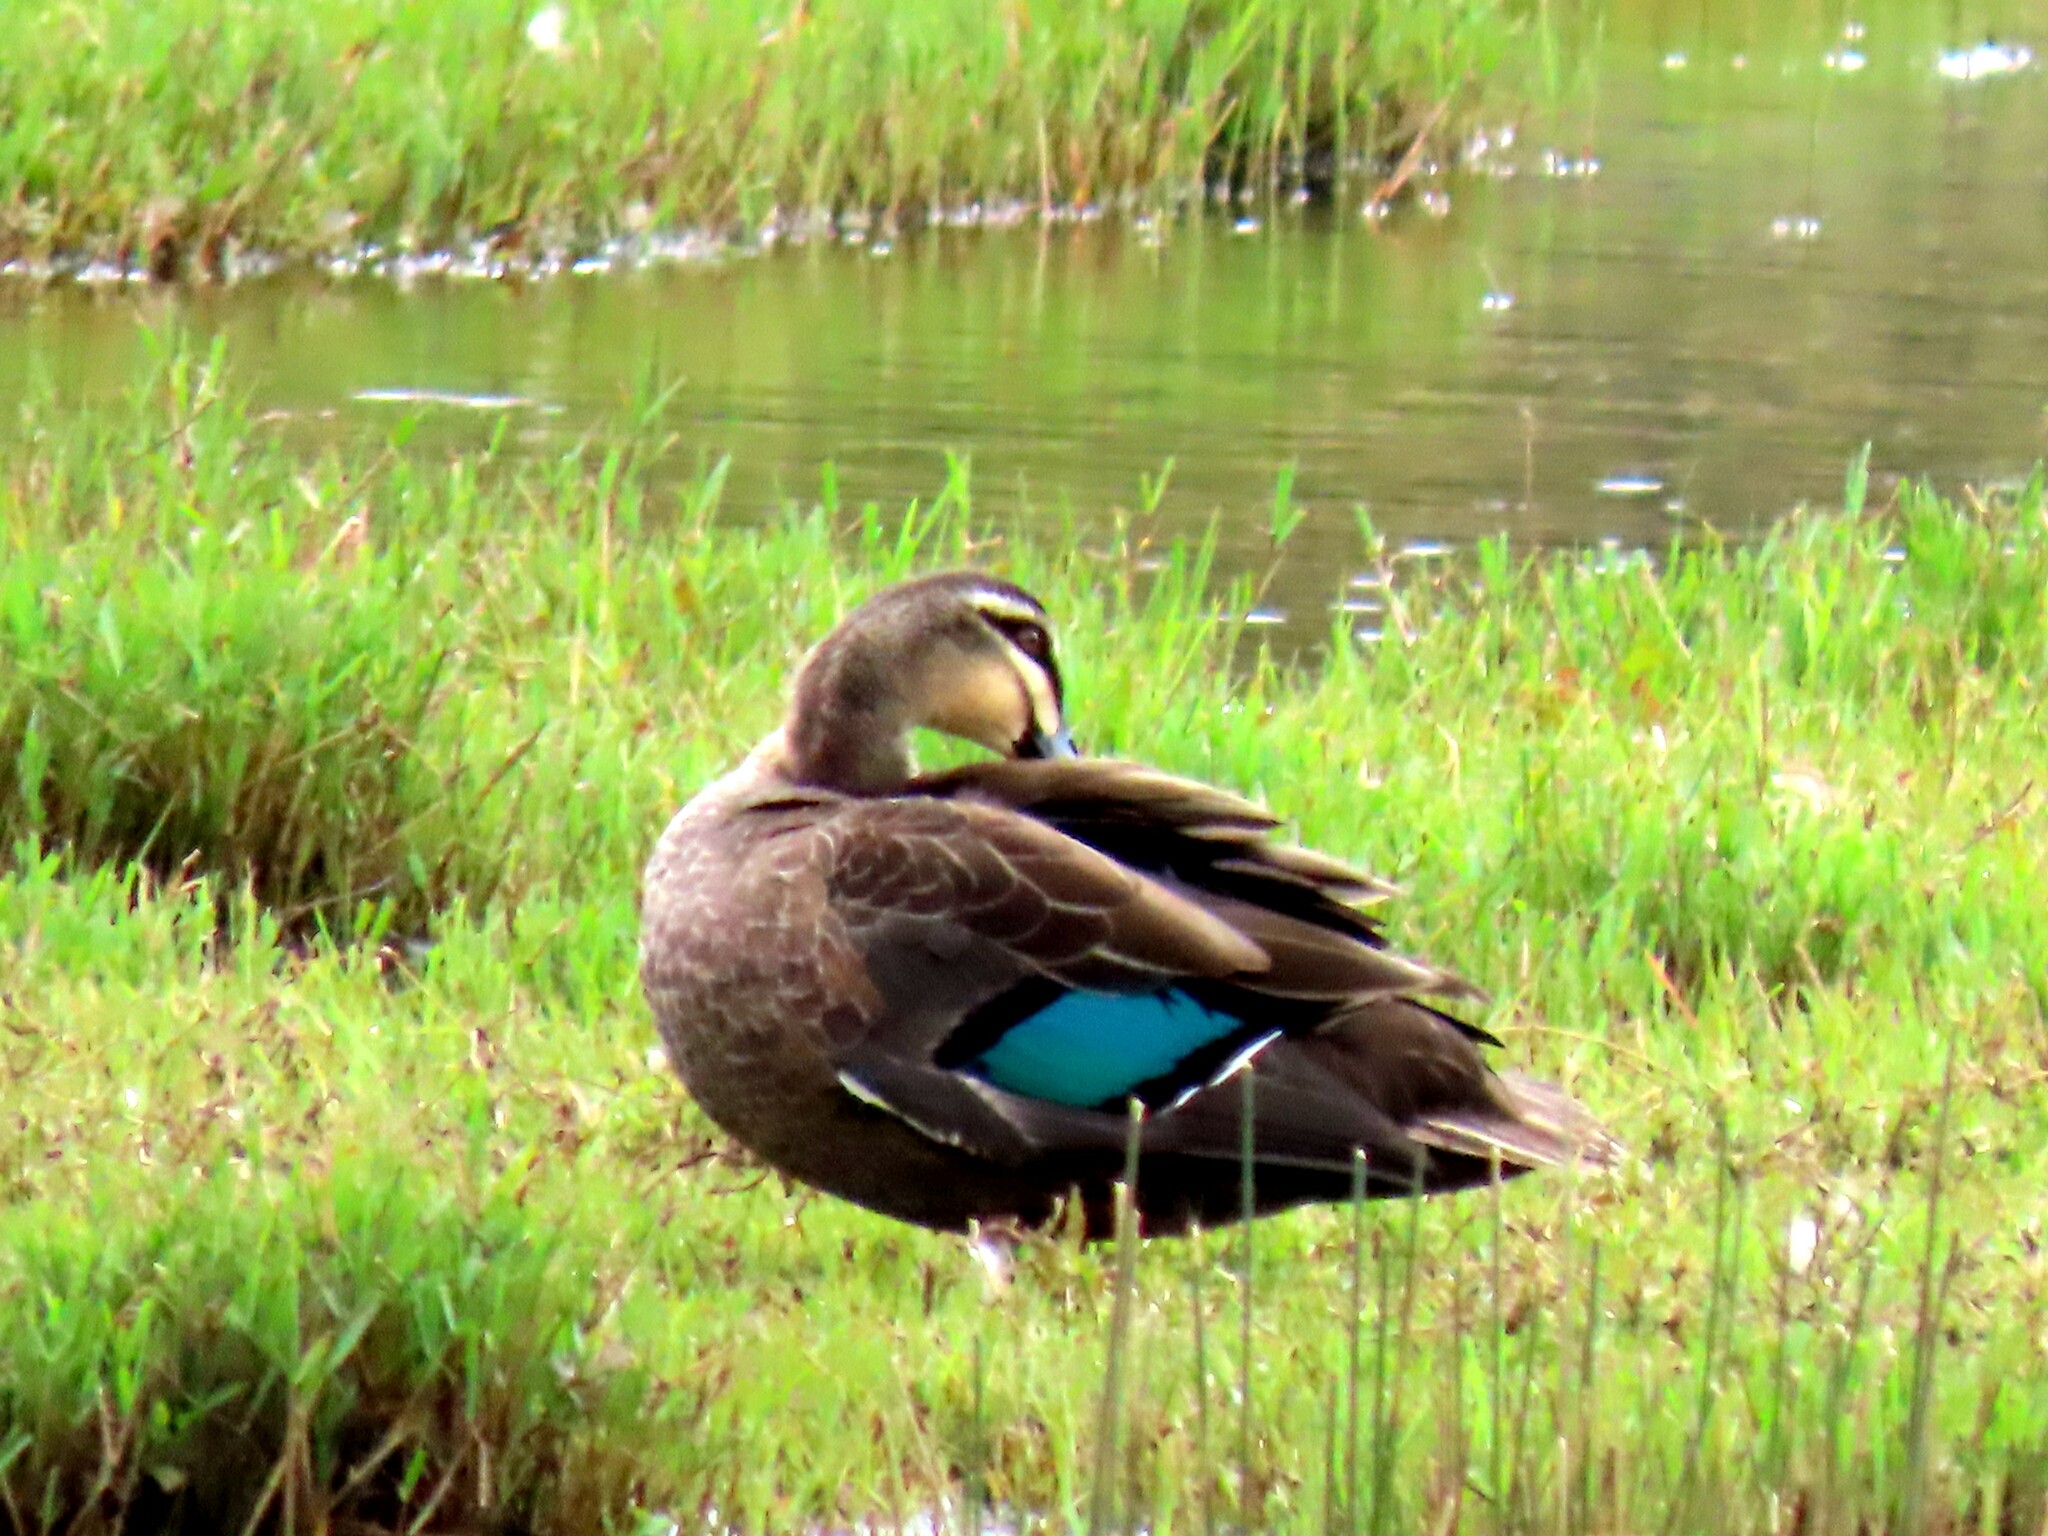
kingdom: Animalia
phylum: Chordata
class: Aves
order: Anseriformes
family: Anatidae
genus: Anas
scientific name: Anas superciliosa
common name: Pacific black duck
